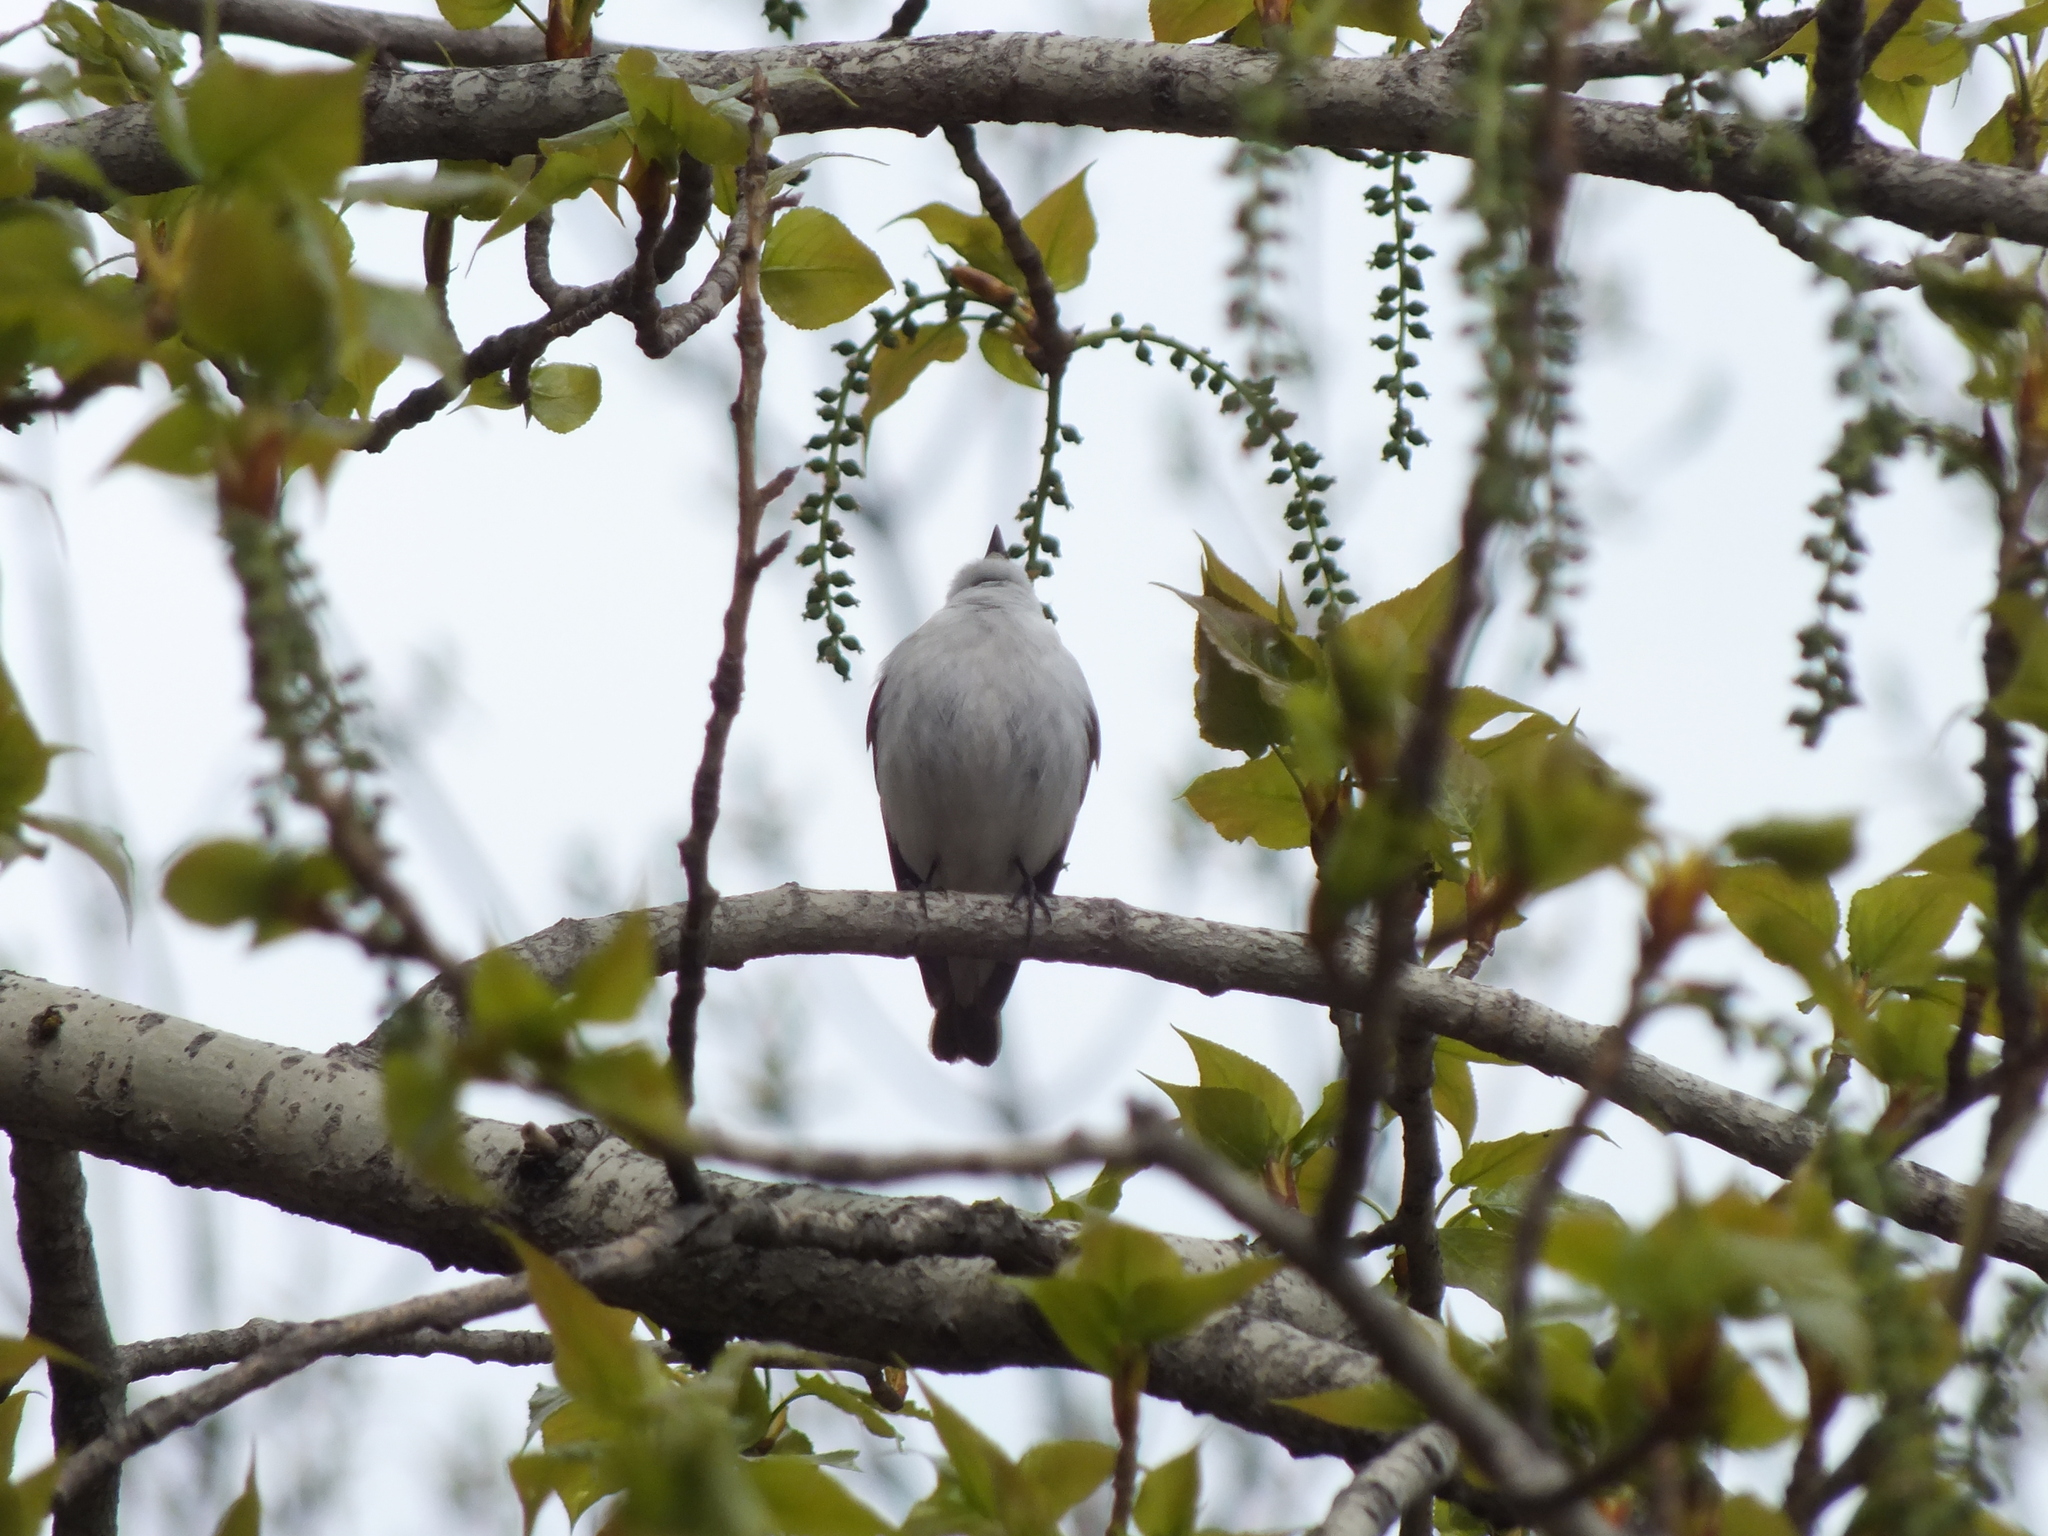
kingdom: Animalia
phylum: Chordata
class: Aves
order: Passeriformes
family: Muscicapidae
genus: Ficedula
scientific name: Ficedula hypoleuca
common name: European pied flycatcher
